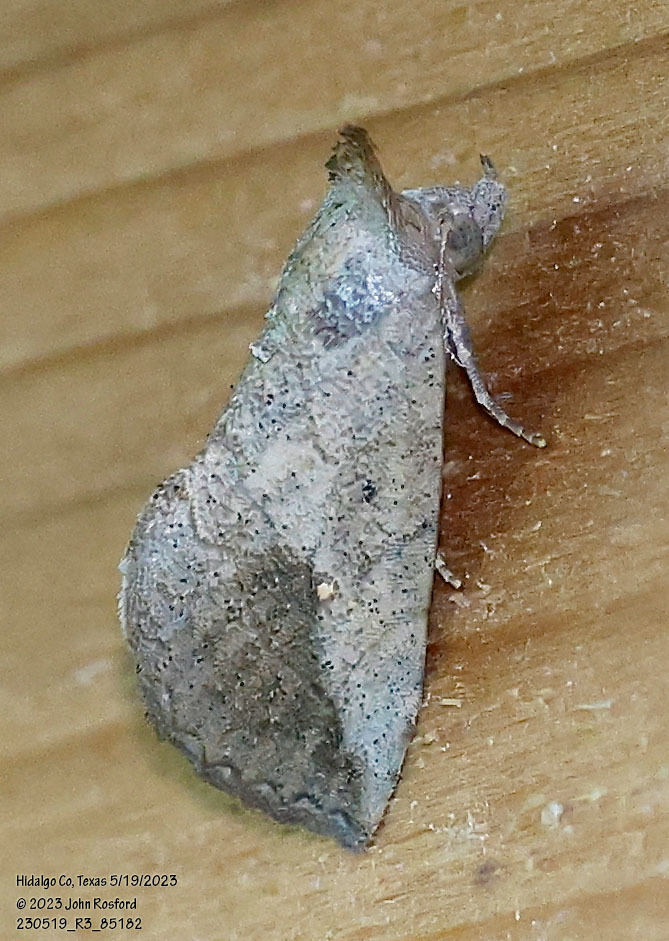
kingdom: Animalia
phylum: Arthropoda
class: Insecta
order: Lepidoptera
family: Erebidae
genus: Isogona
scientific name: Isogona snowi
